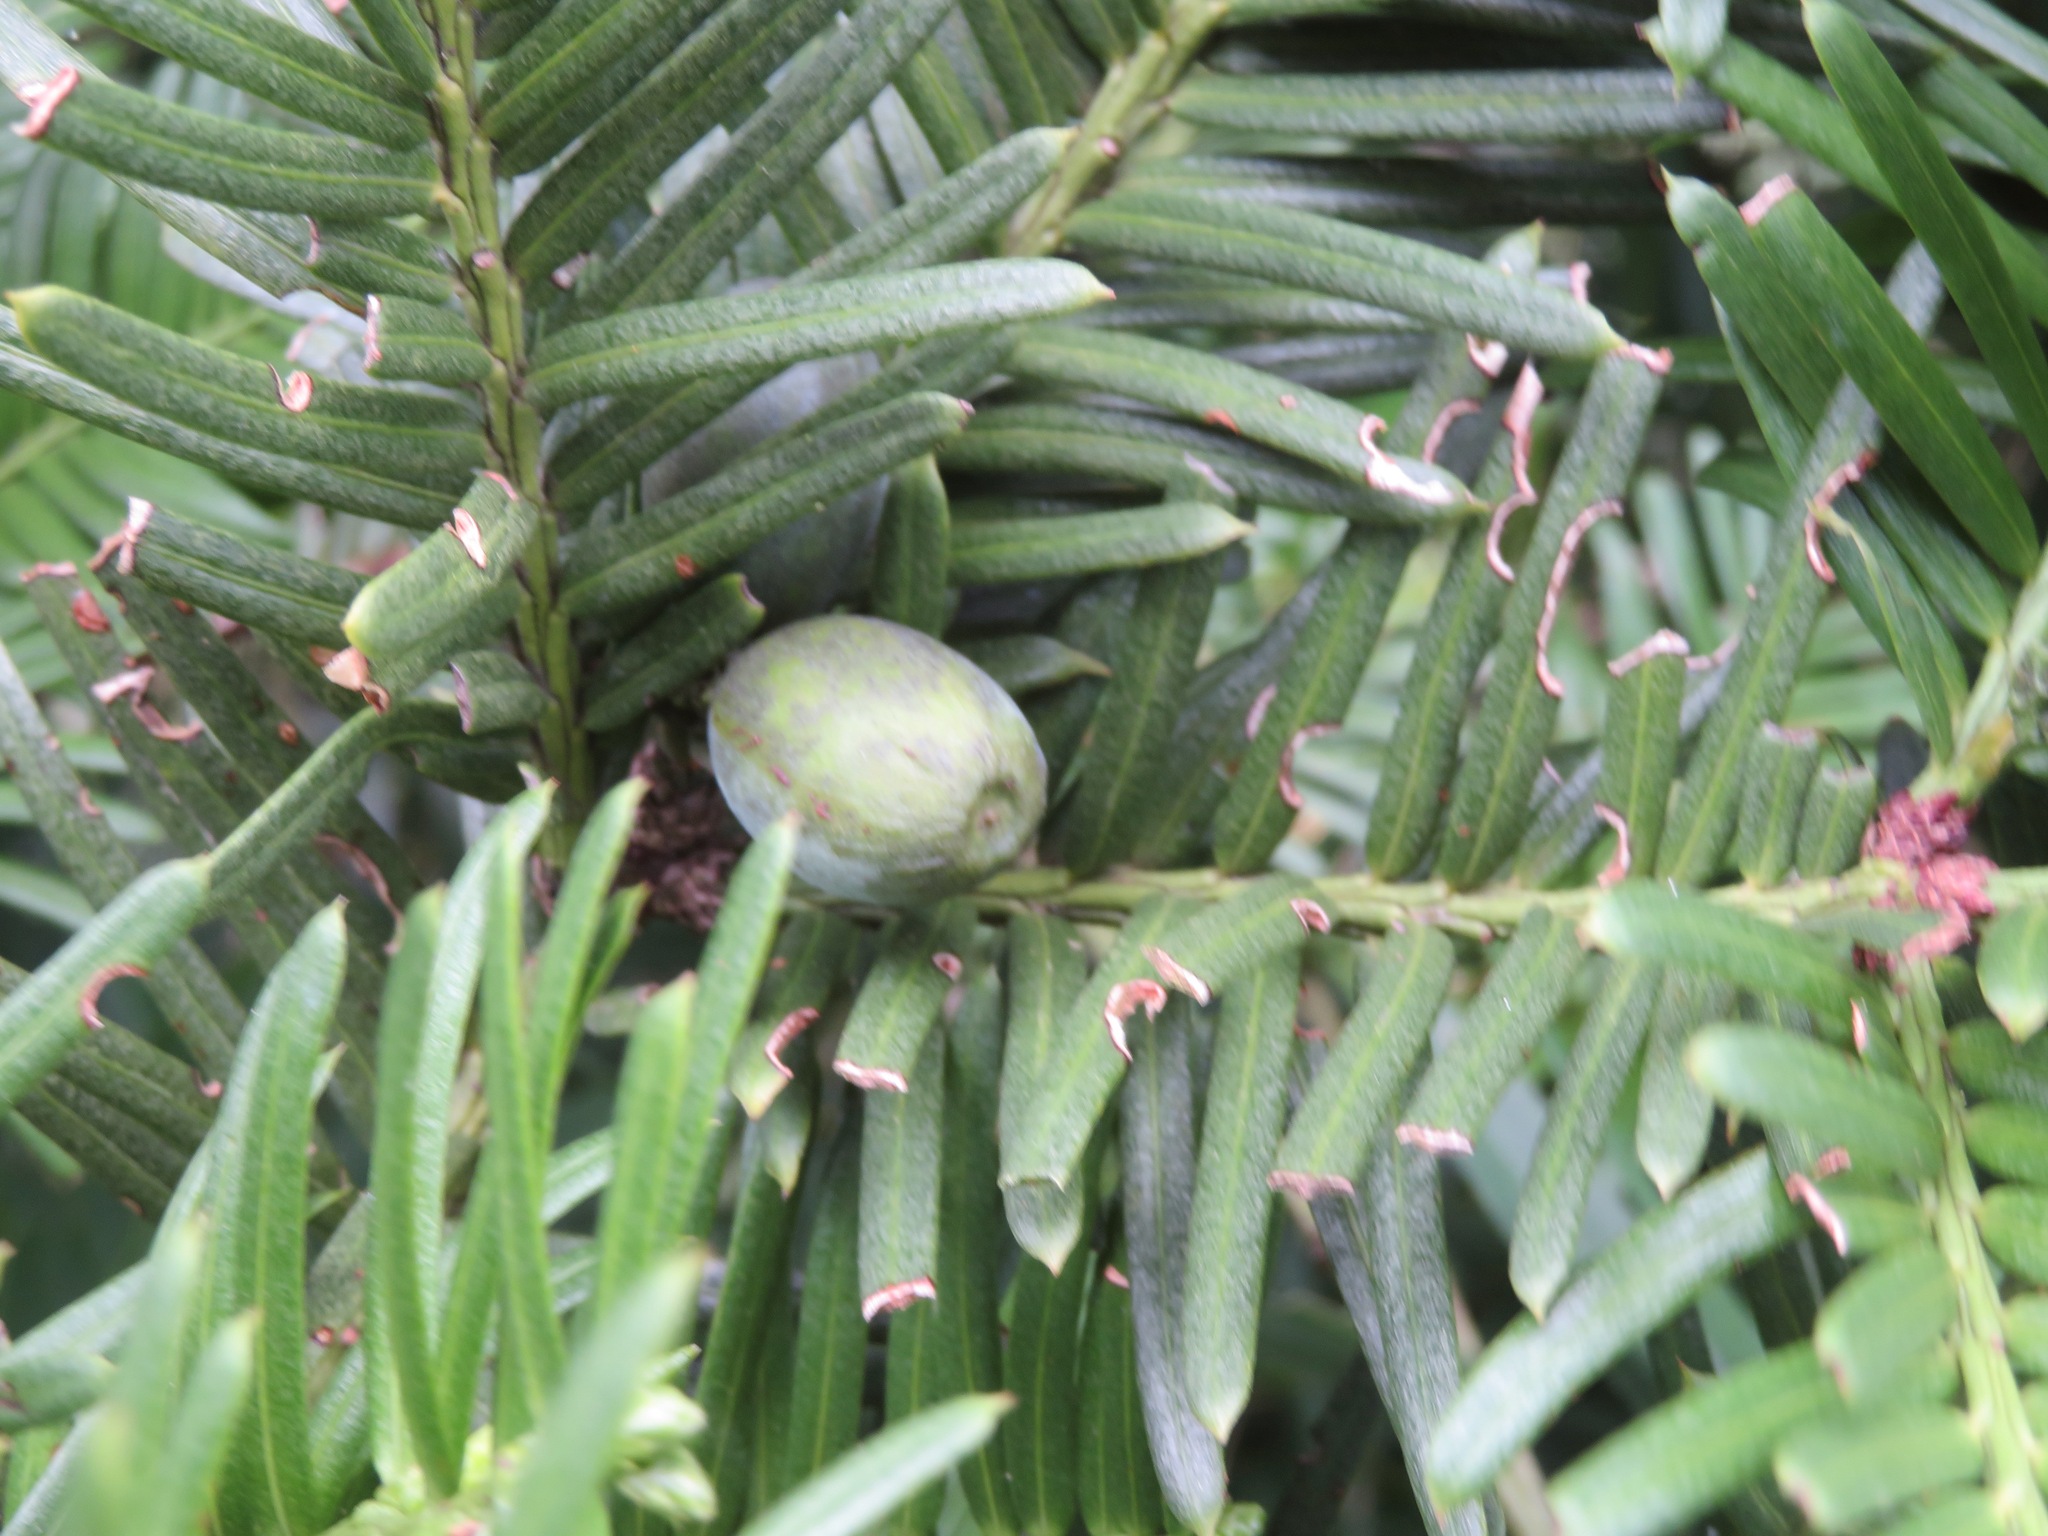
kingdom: Plantae
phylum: Tracheophyta
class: Pinopsida
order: Pinales
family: Cephalotaxaceae
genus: Cephalotaxus
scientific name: Cephalotaxus harringtonia
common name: Japanese plum-yew
